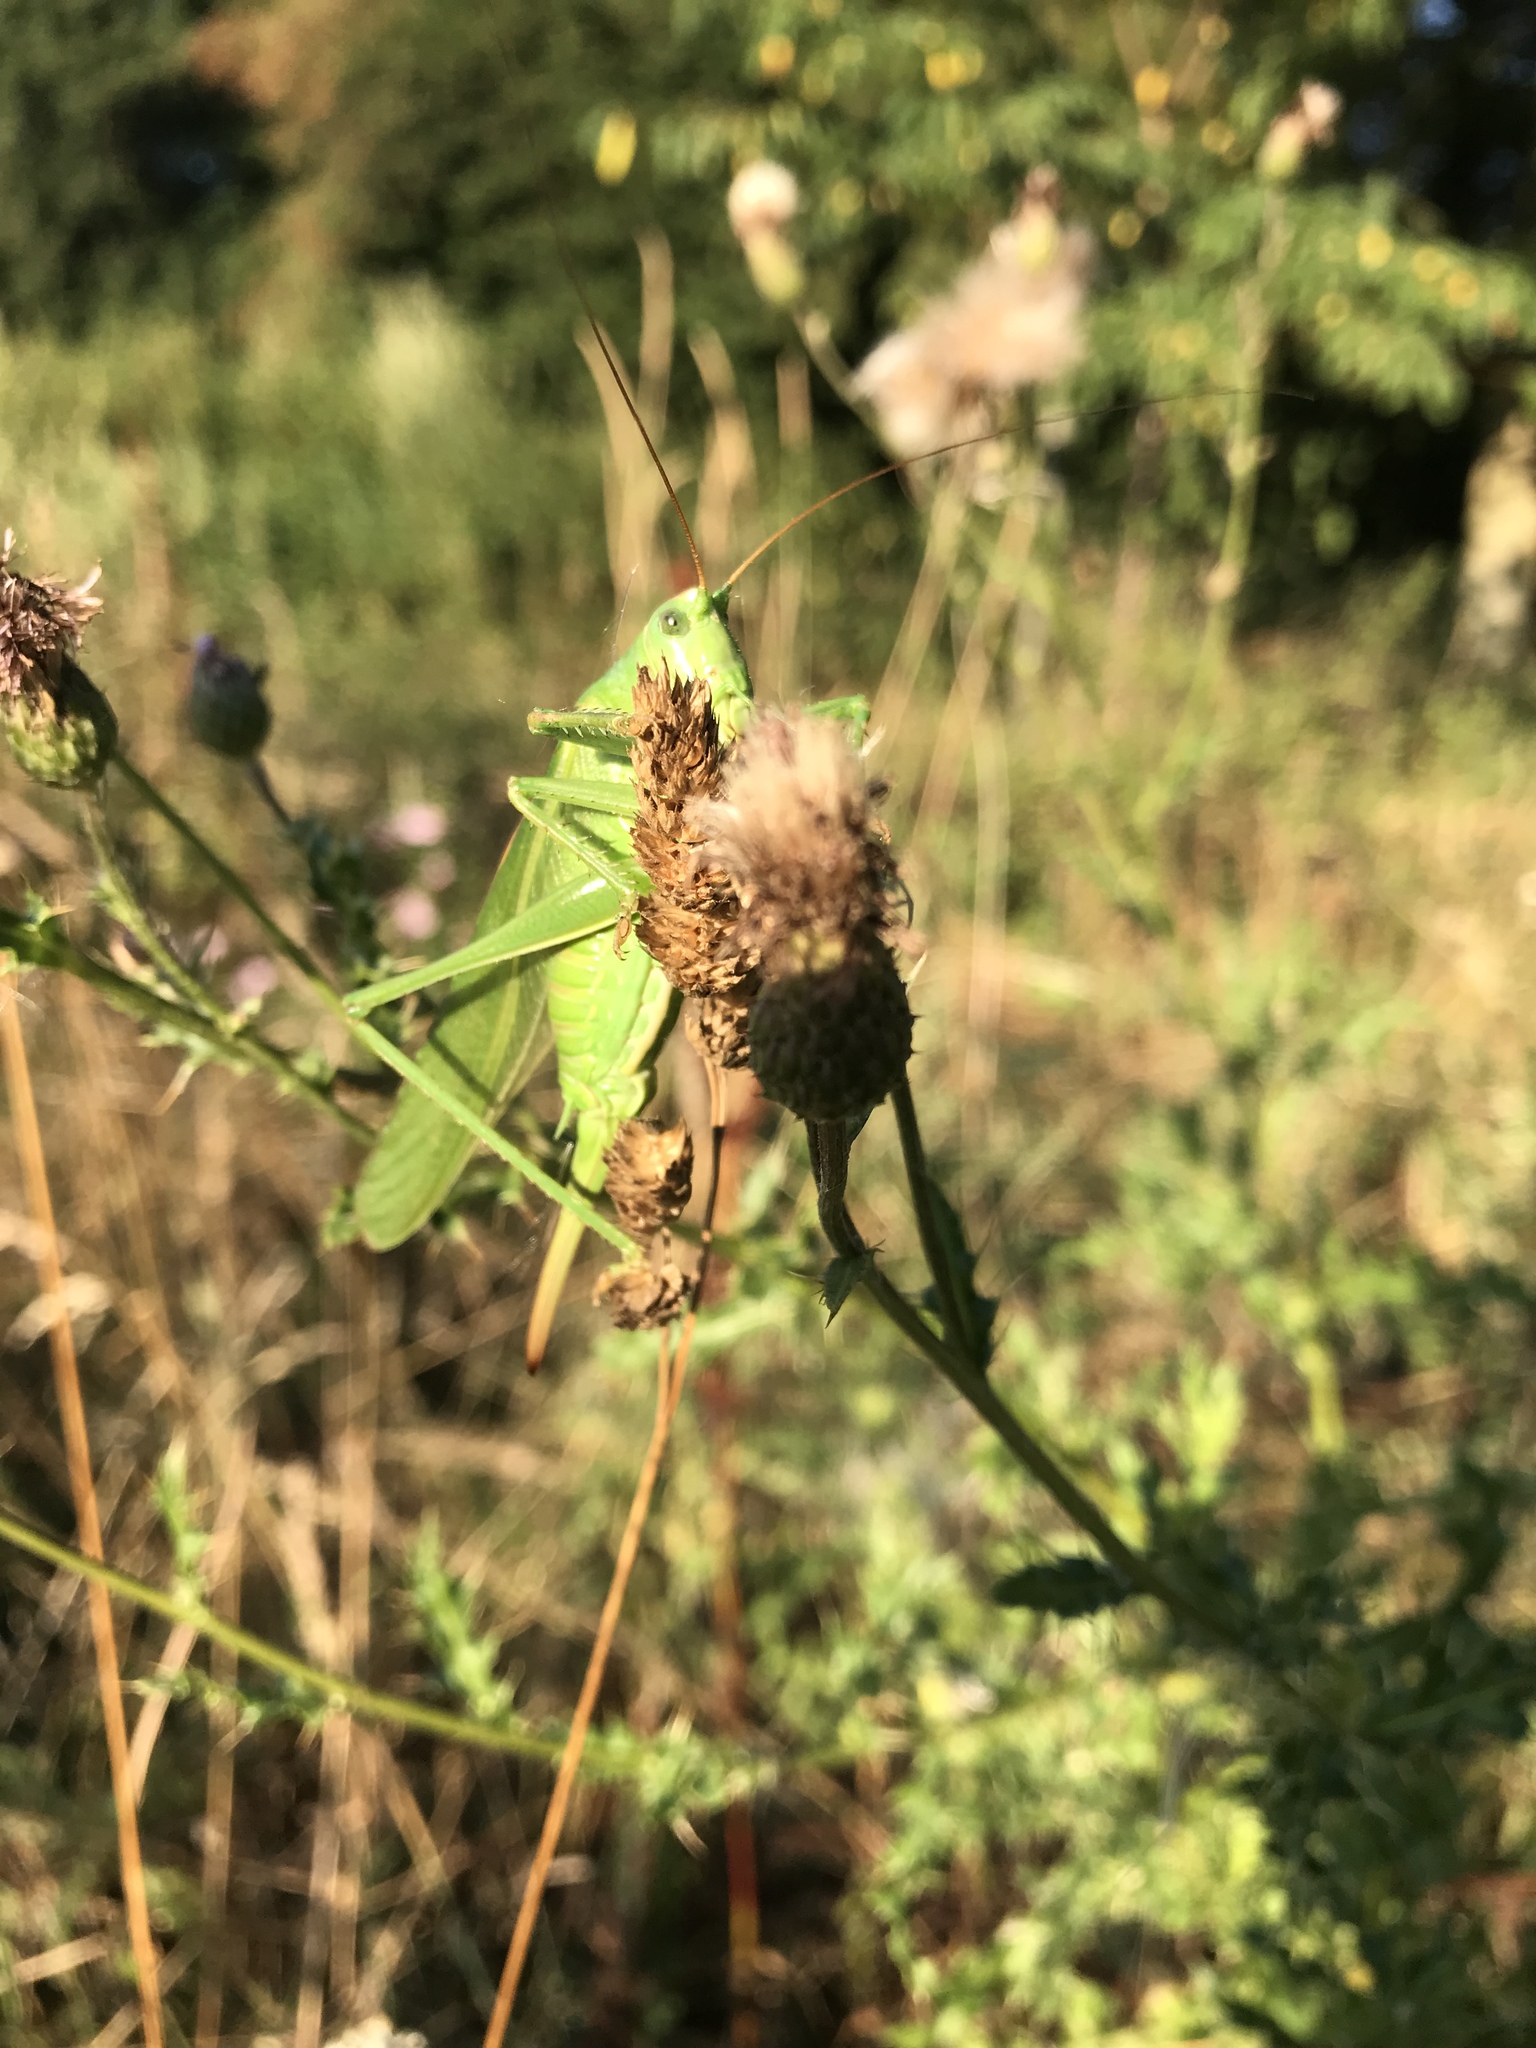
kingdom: Animalia
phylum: Arthropoda
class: Insecta
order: Orthoptera
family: Tettigoniidae
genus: Tettigonia
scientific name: Tettigonia viridissima
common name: Great green bush-cricket
